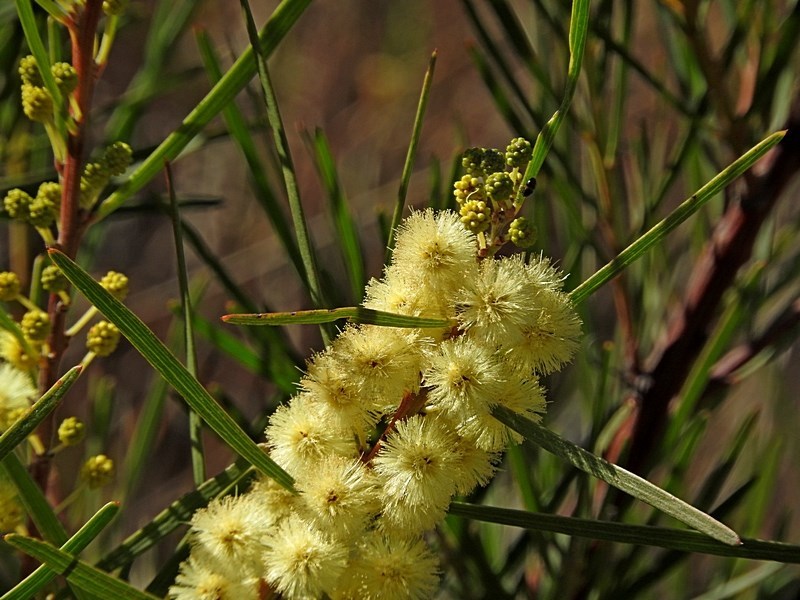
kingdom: Plantae
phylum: Tracheophyta
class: Magnoliopsida
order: Fabales
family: Fabaceae
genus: Acacia
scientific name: Acacia elongata
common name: Swamp wattle
